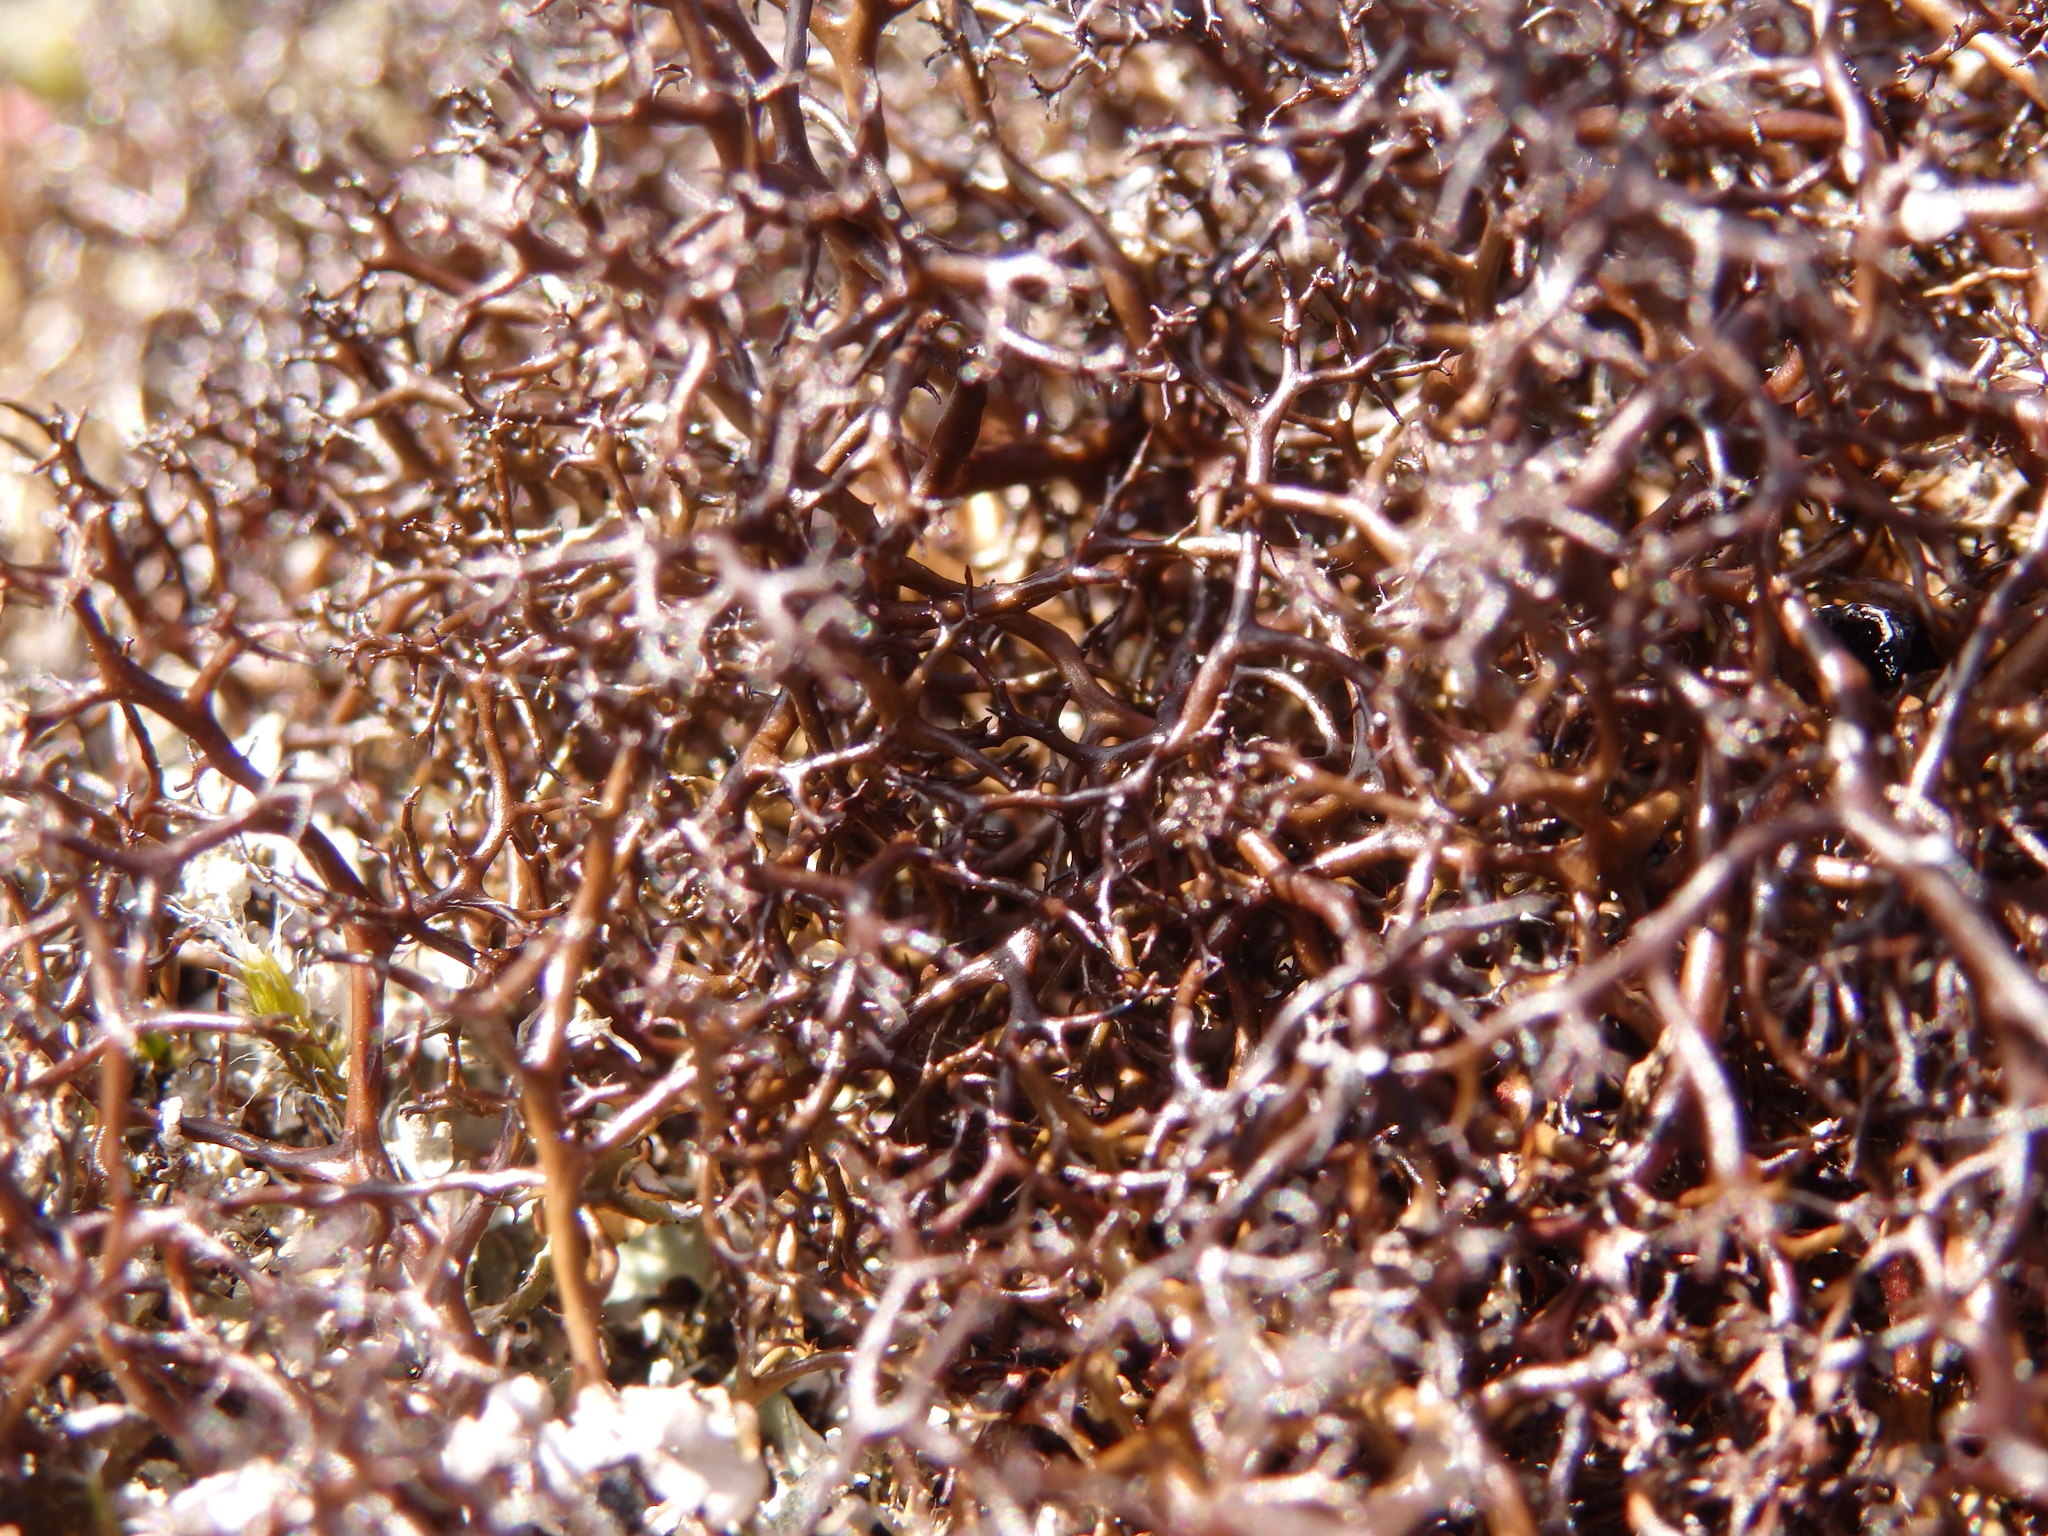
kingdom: Fungi
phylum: Ascomycota
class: Lecanoromycetes
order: Lecanorales
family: Parmeliaceae
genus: Cetraria
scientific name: Cetraria aculeata
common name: Spiny heath lichen
